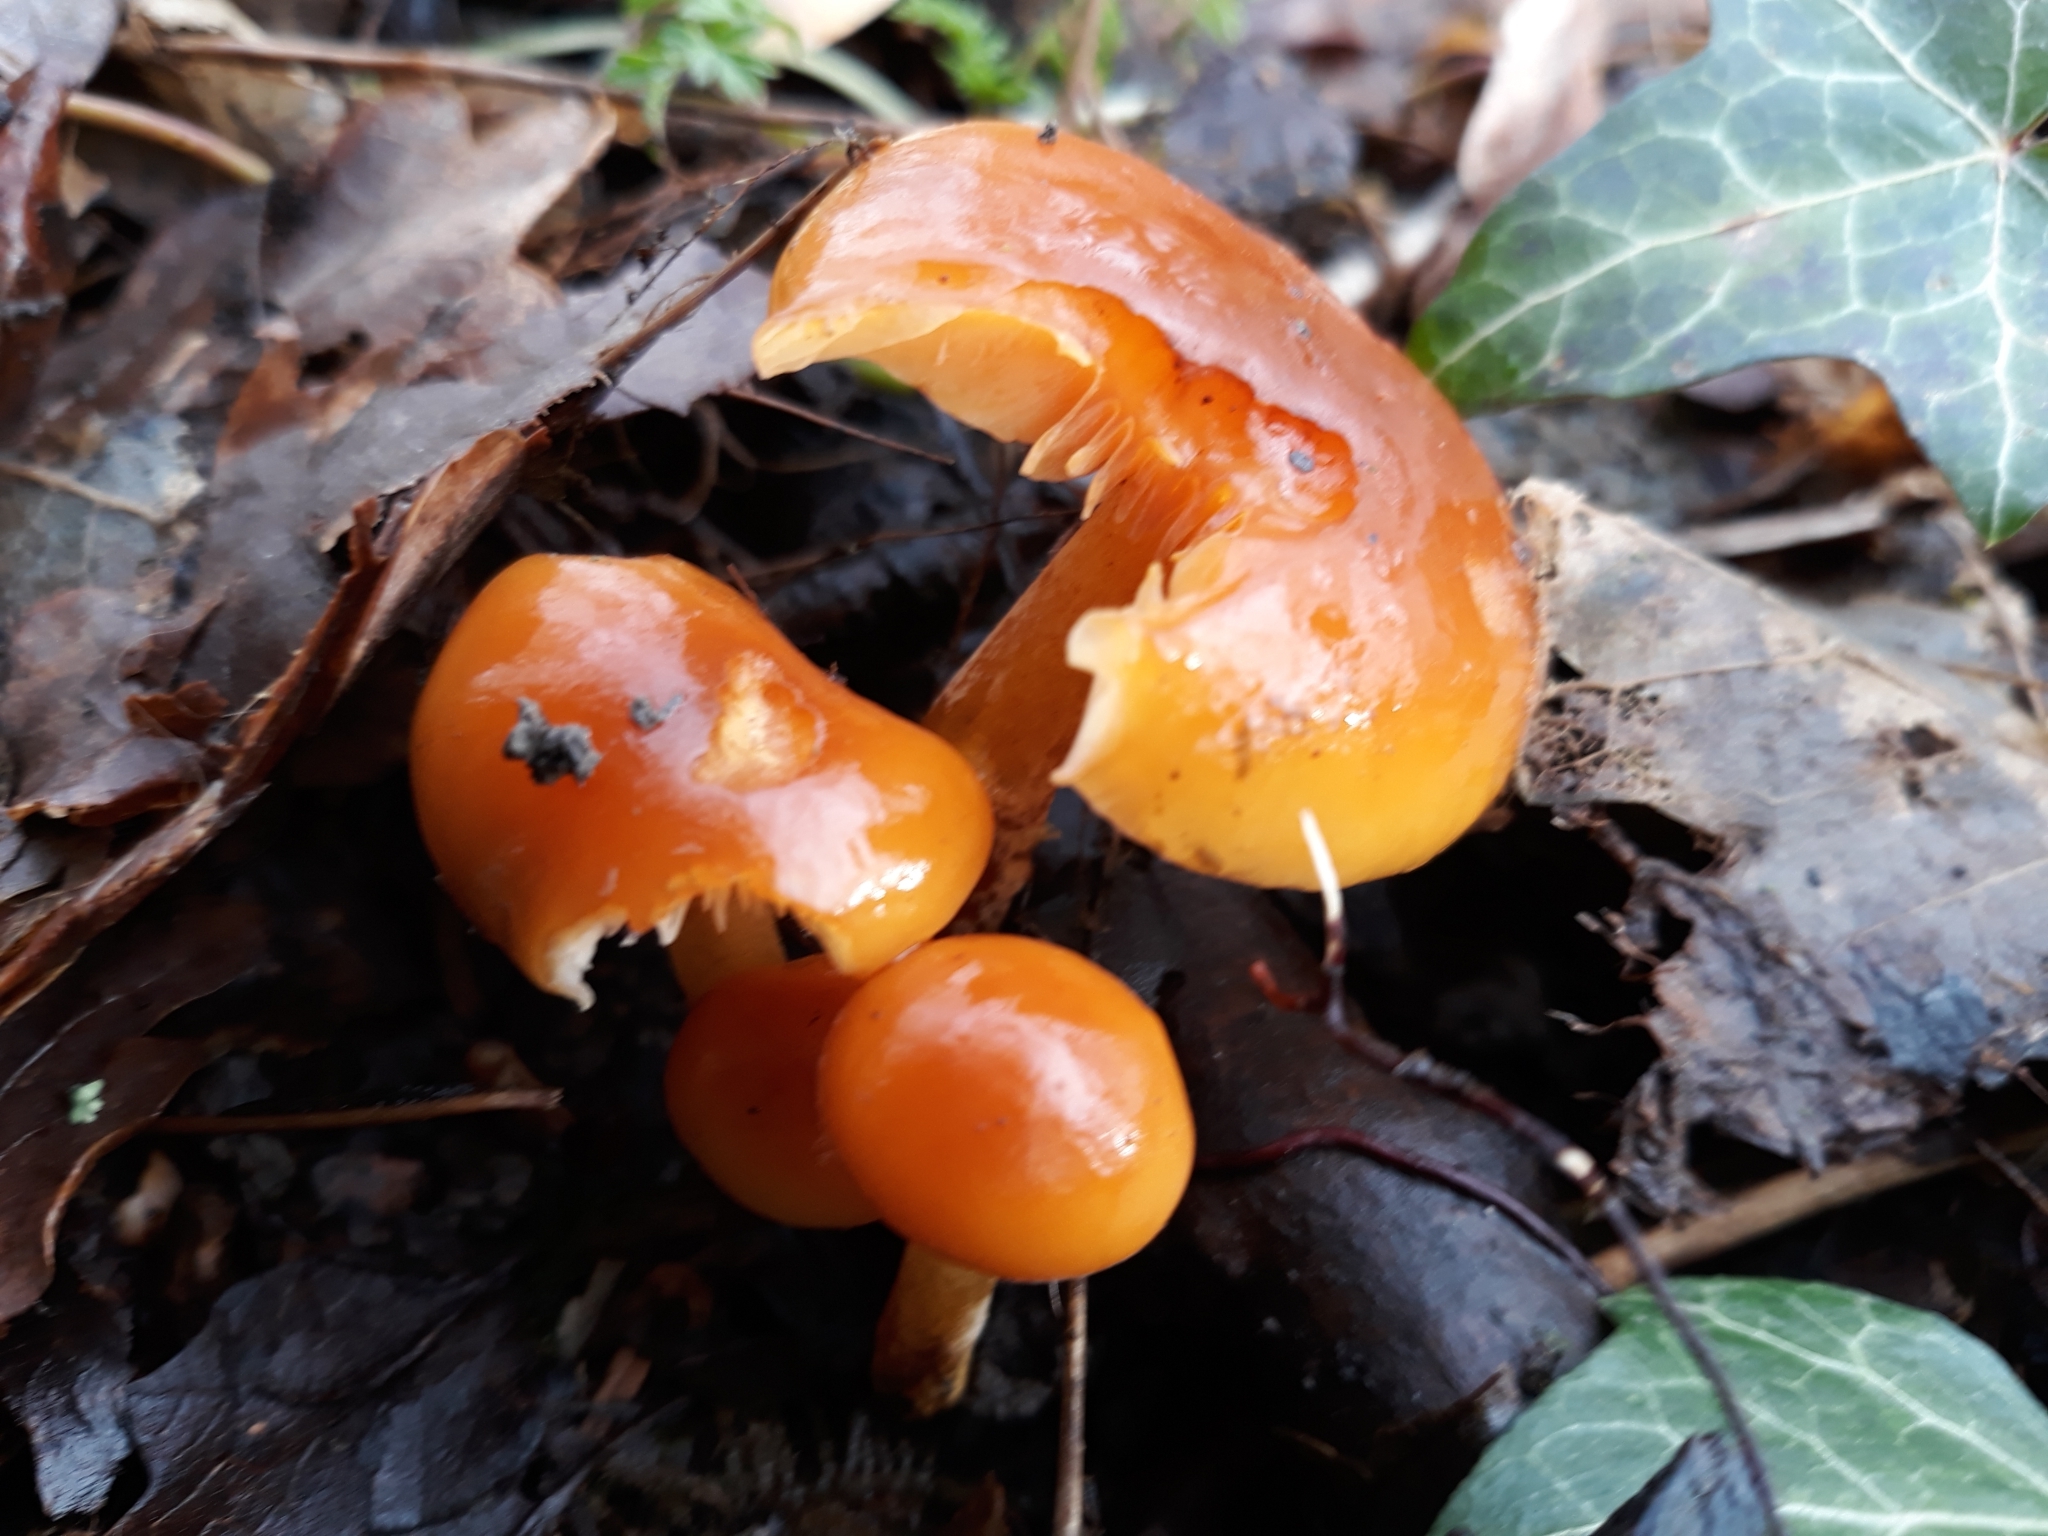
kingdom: Fungi
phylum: Basidiomycota
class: Agaricomycetes
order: Agaricales
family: Physalacriaceae
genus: Flammulina
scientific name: Flammulina
